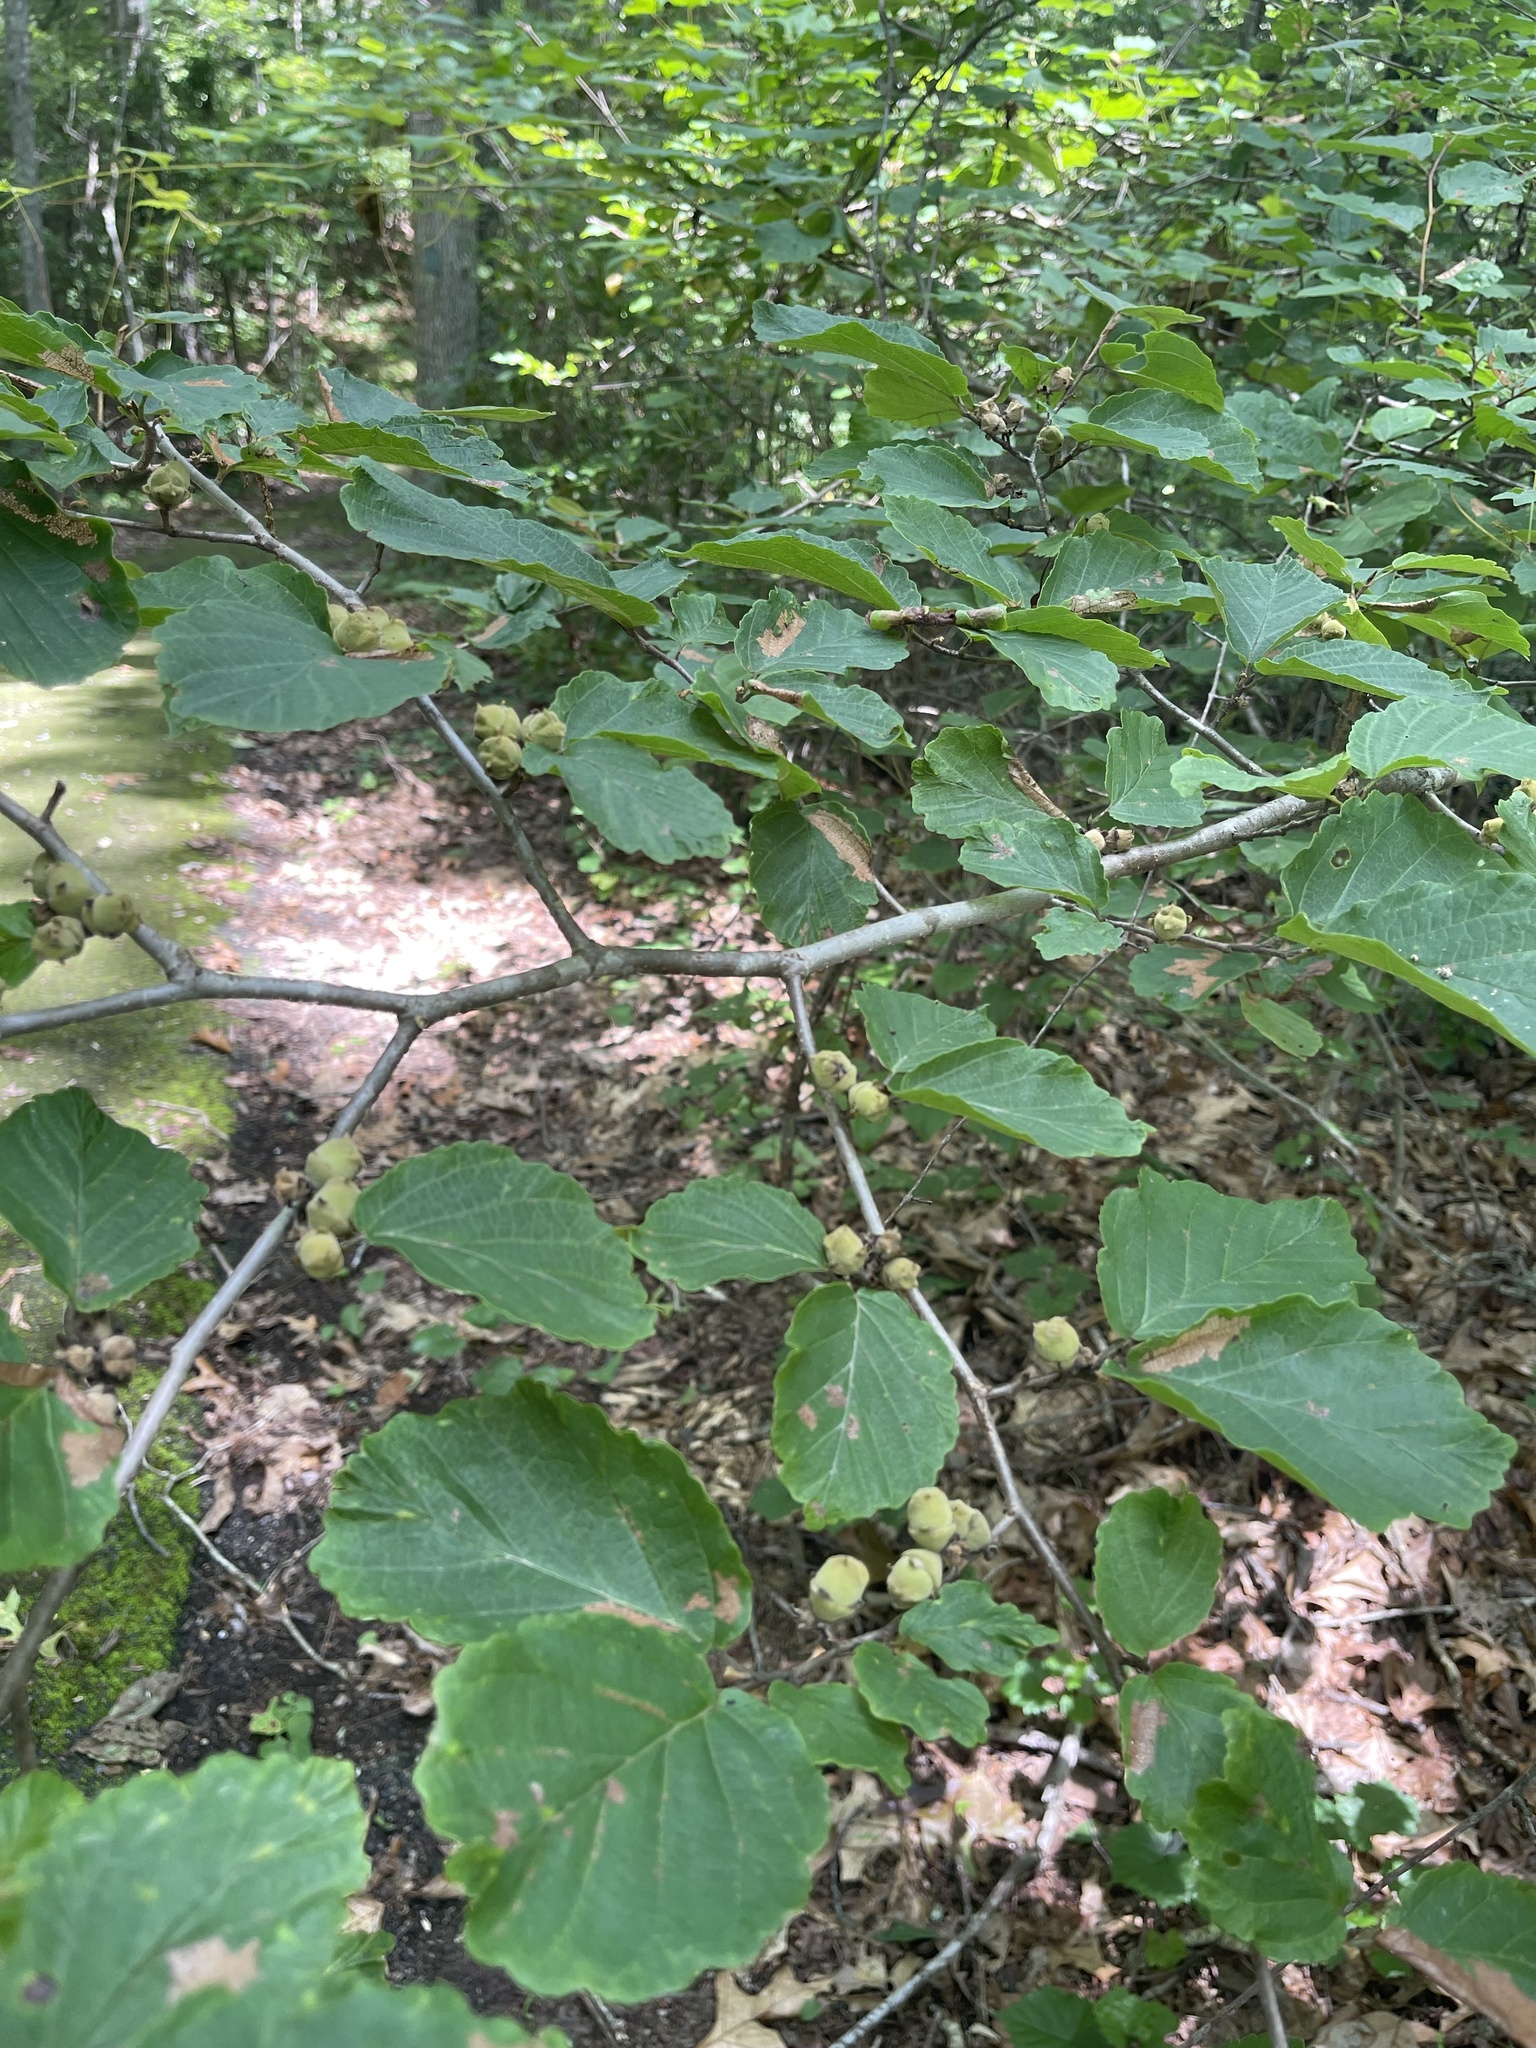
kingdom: Plantae
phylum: Tracheophyta
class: Magnoliopsida
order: Saxifragales
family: Hamamelidaceae
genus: Hamamelis
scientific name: Hamamelis virginiana
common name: Witch-hazel
